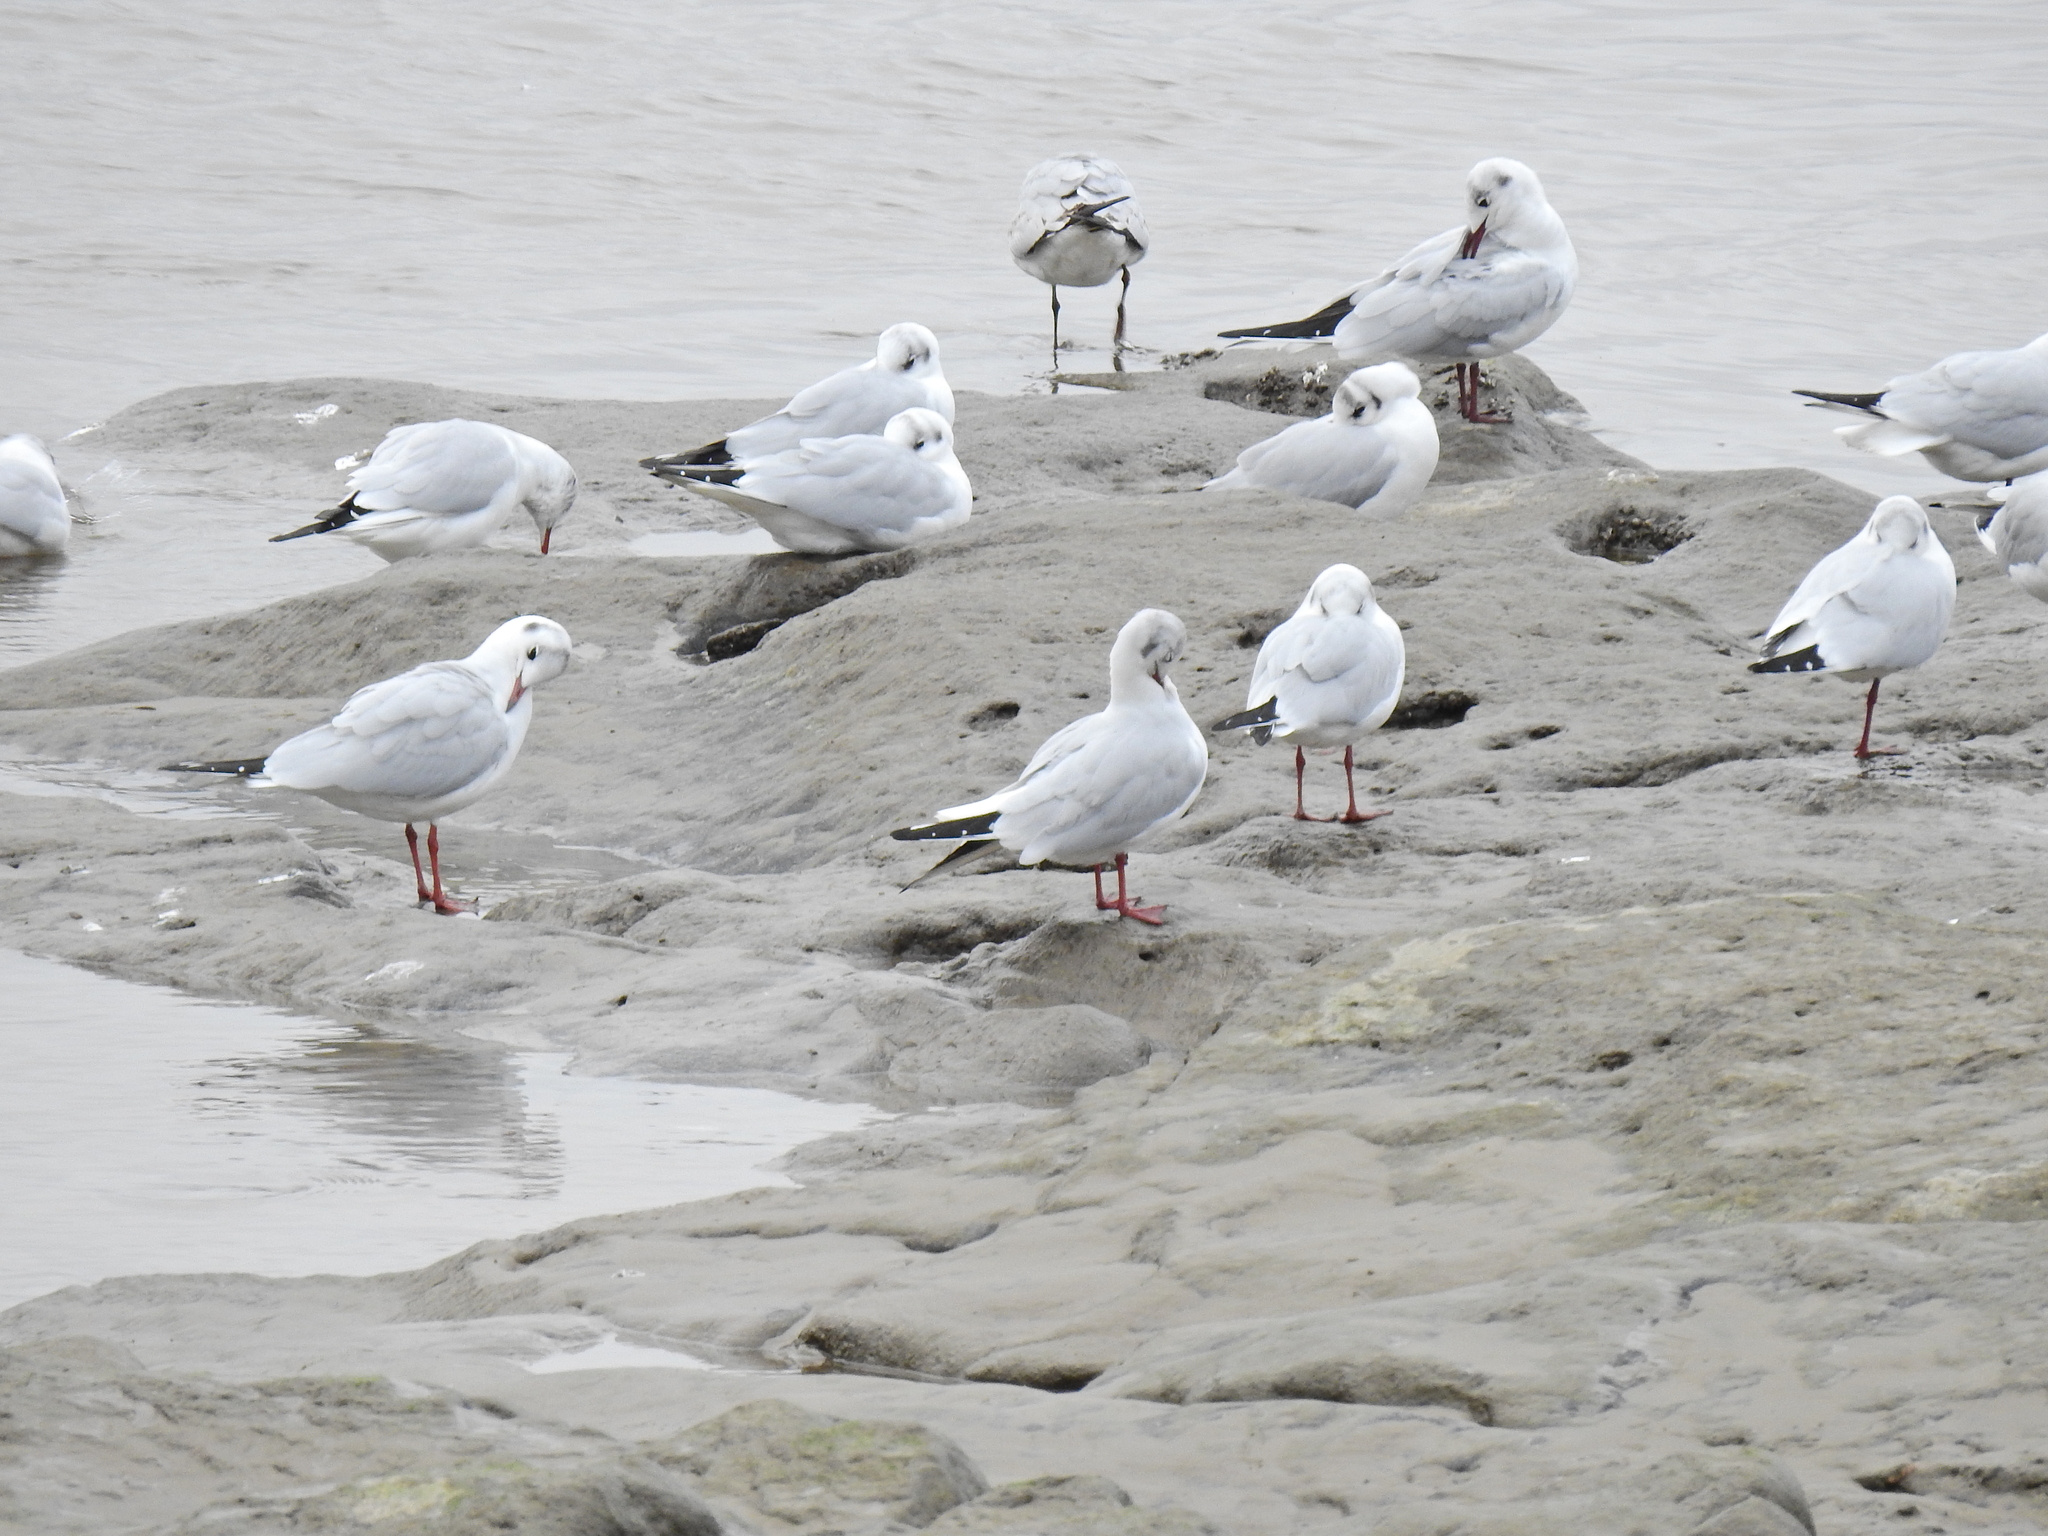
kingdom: Animalia
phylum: Chordata
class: Aves
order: Charadriiformes
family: Laridae
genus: Chroicocephalus
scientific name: Chroicocephalus ridibundus
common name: Black-headed gull
